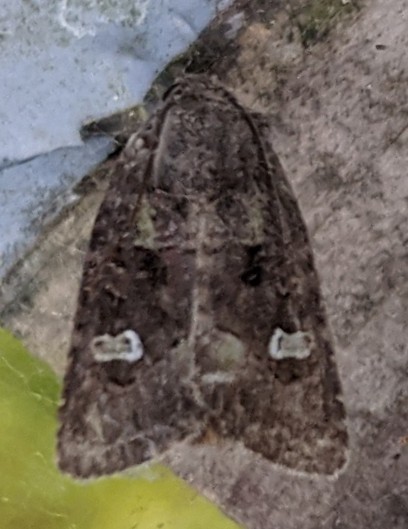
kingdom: Animalia
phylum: Arthropoda
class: Insecta
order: Lepidoptera
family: Noctuidae
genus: Lacinipolia
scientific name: Lacinipolia renigera
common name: Kidney-spotted minor
